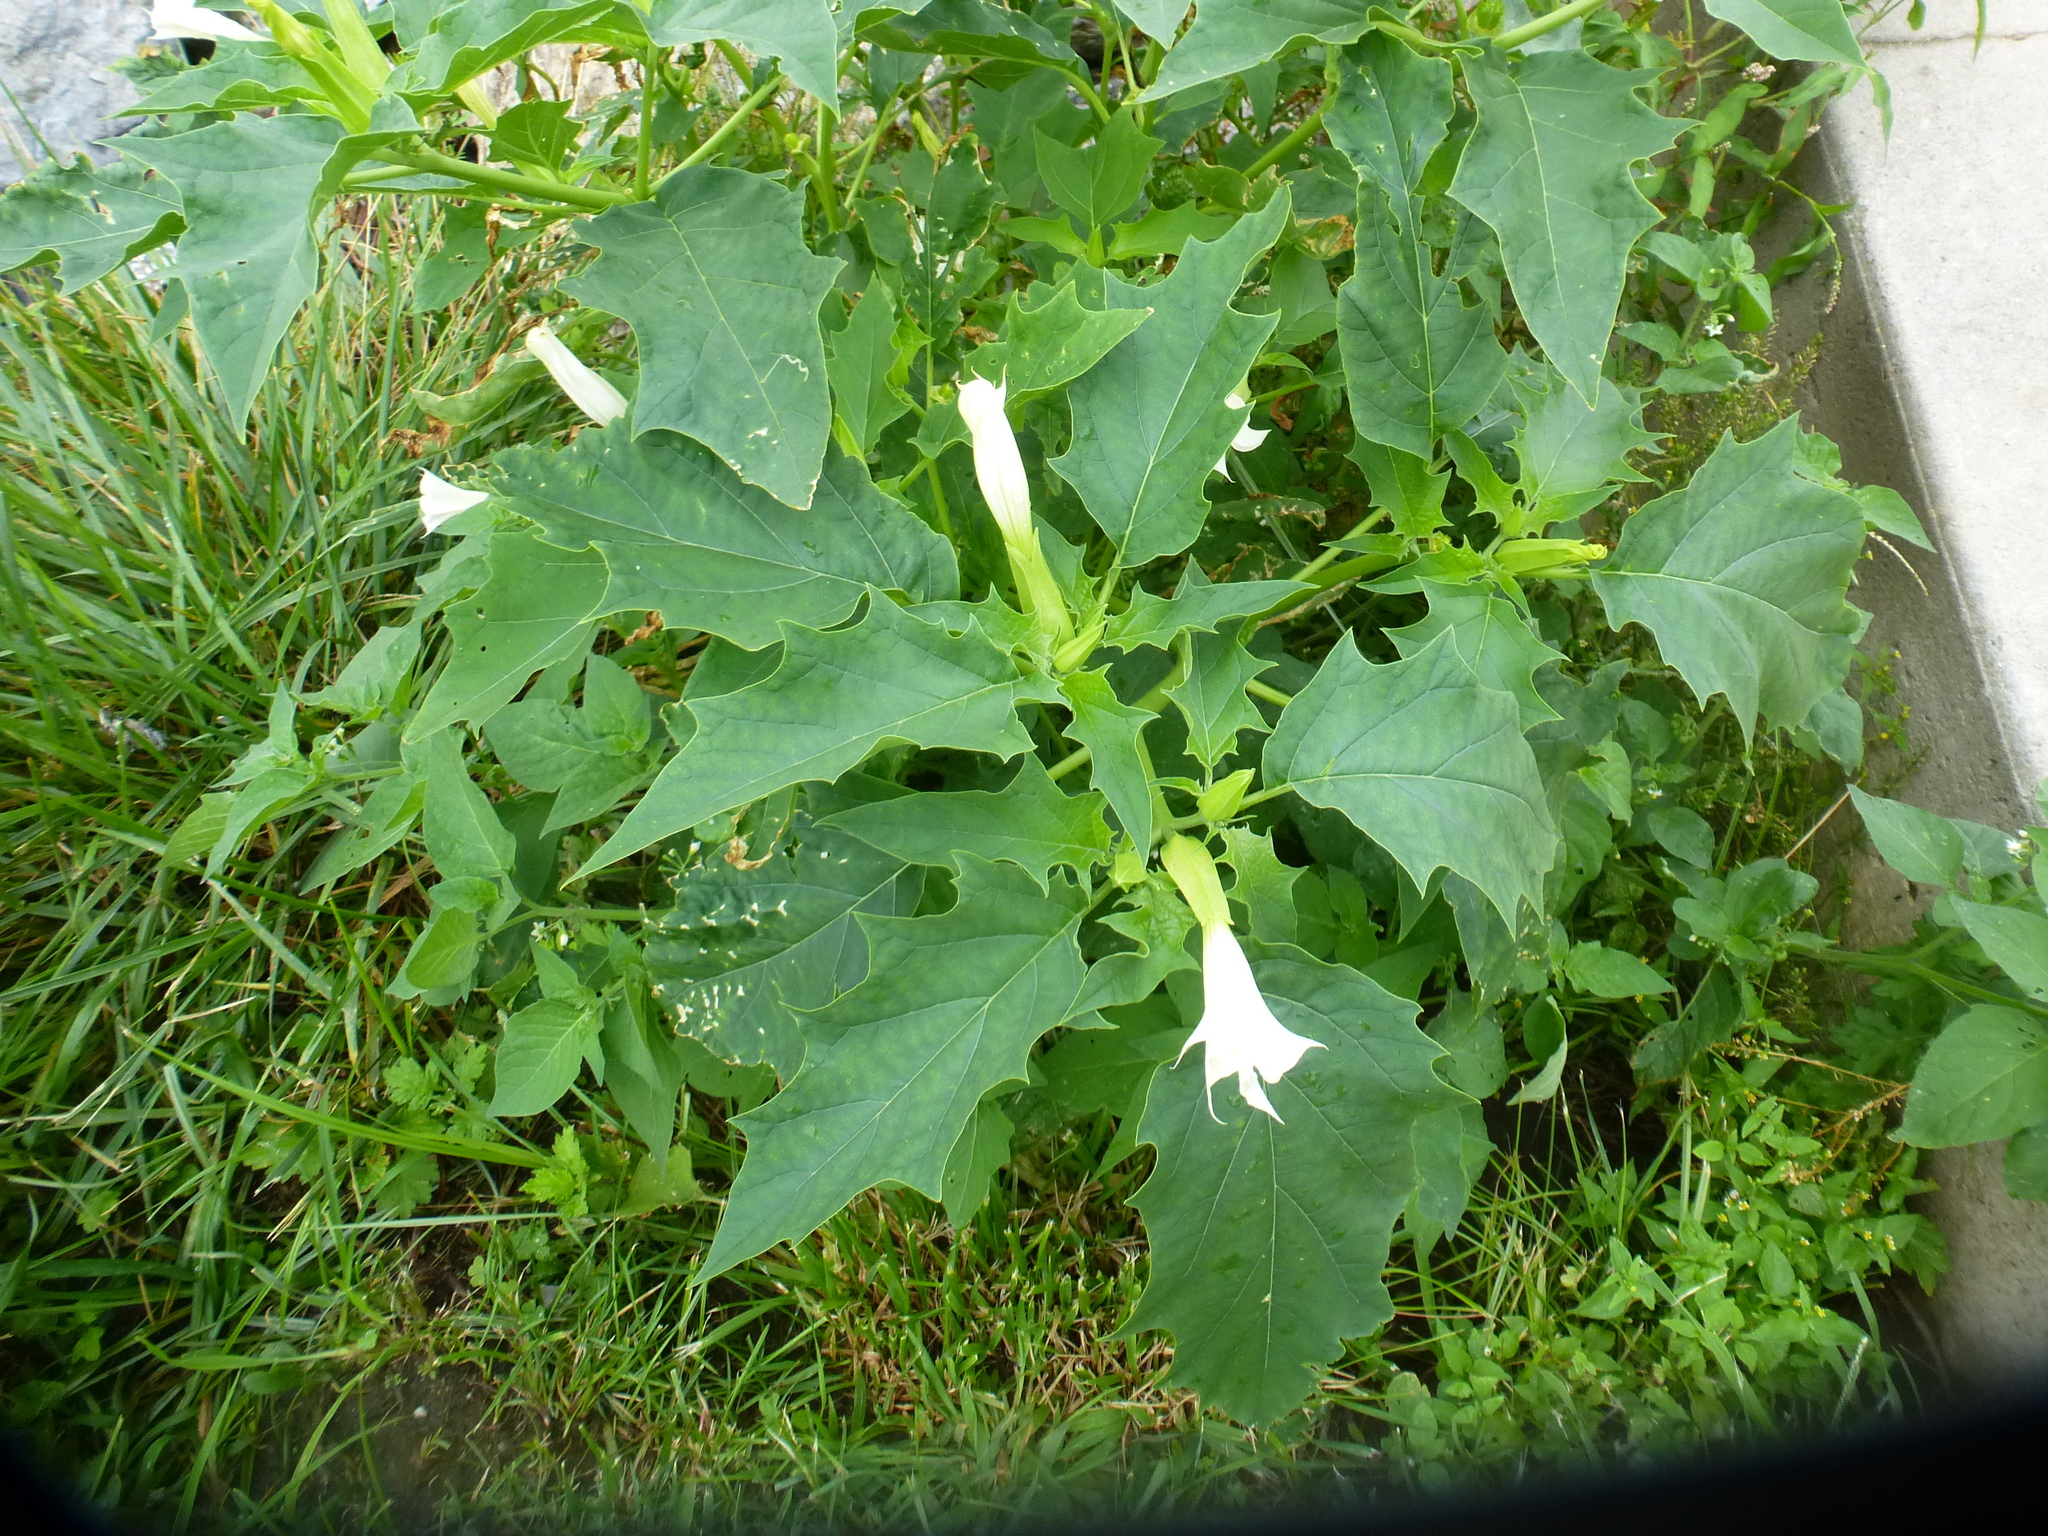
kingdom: Plantae
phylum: Tracheophyta
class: Magnoliopsida
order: Solanales
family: Solanaceae
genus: Datura
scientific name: Datura stramonium
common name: Thorn-apple
